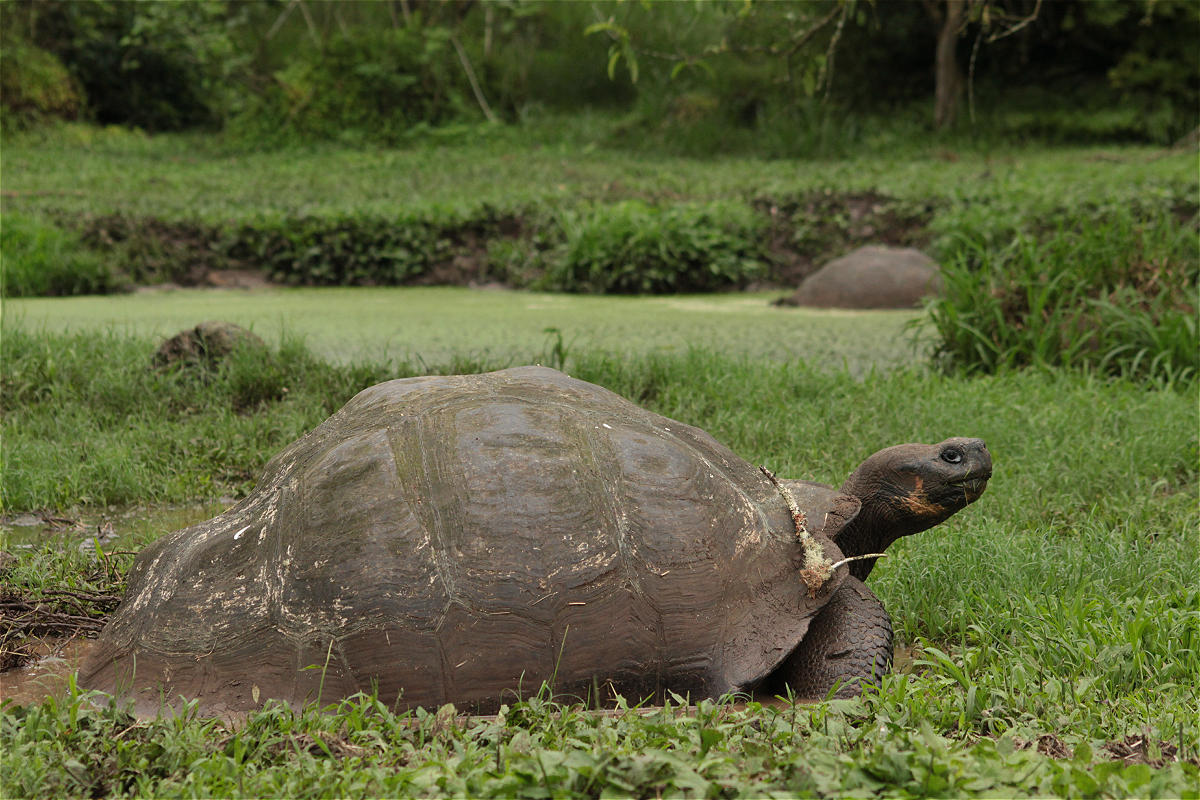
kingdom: Animalia
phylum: Chordata
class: Testudines
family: Testudinidae
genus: Chelonoidis
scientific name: Chelonoidis porteri
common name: Indefatigable island giant tortoise
